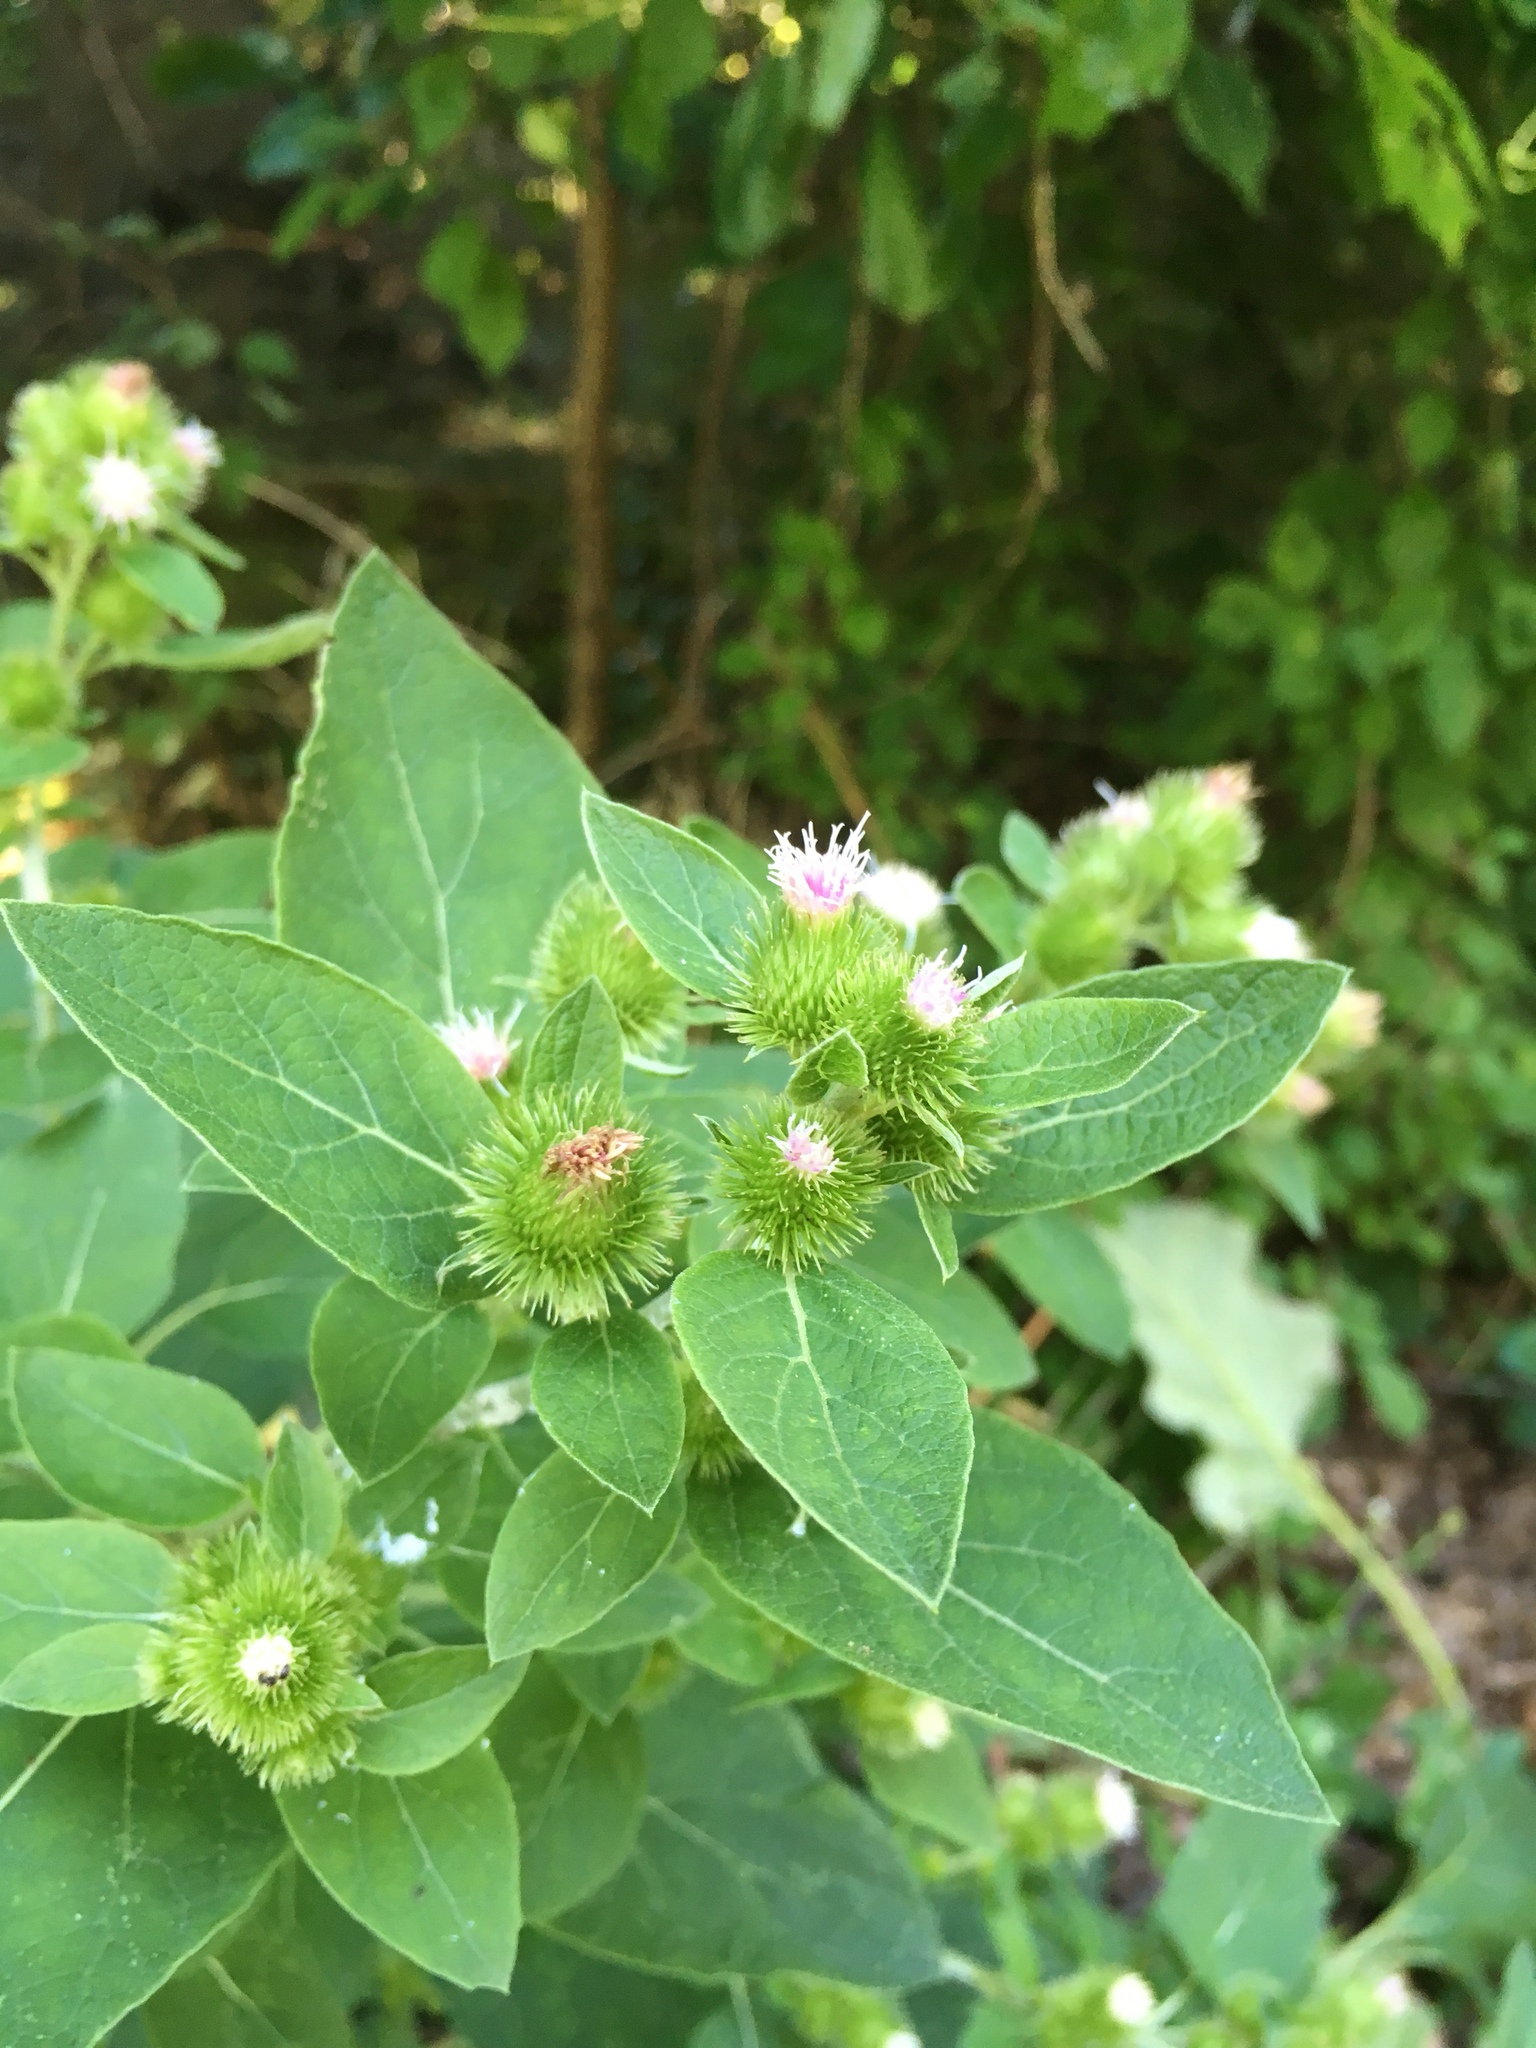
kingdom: Plantae
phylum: Tracheophyta
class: Magnoliopsida
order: Asterales
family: Asteraceae
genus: Arctium
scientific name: Arctium minus
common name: Lesser burdock
